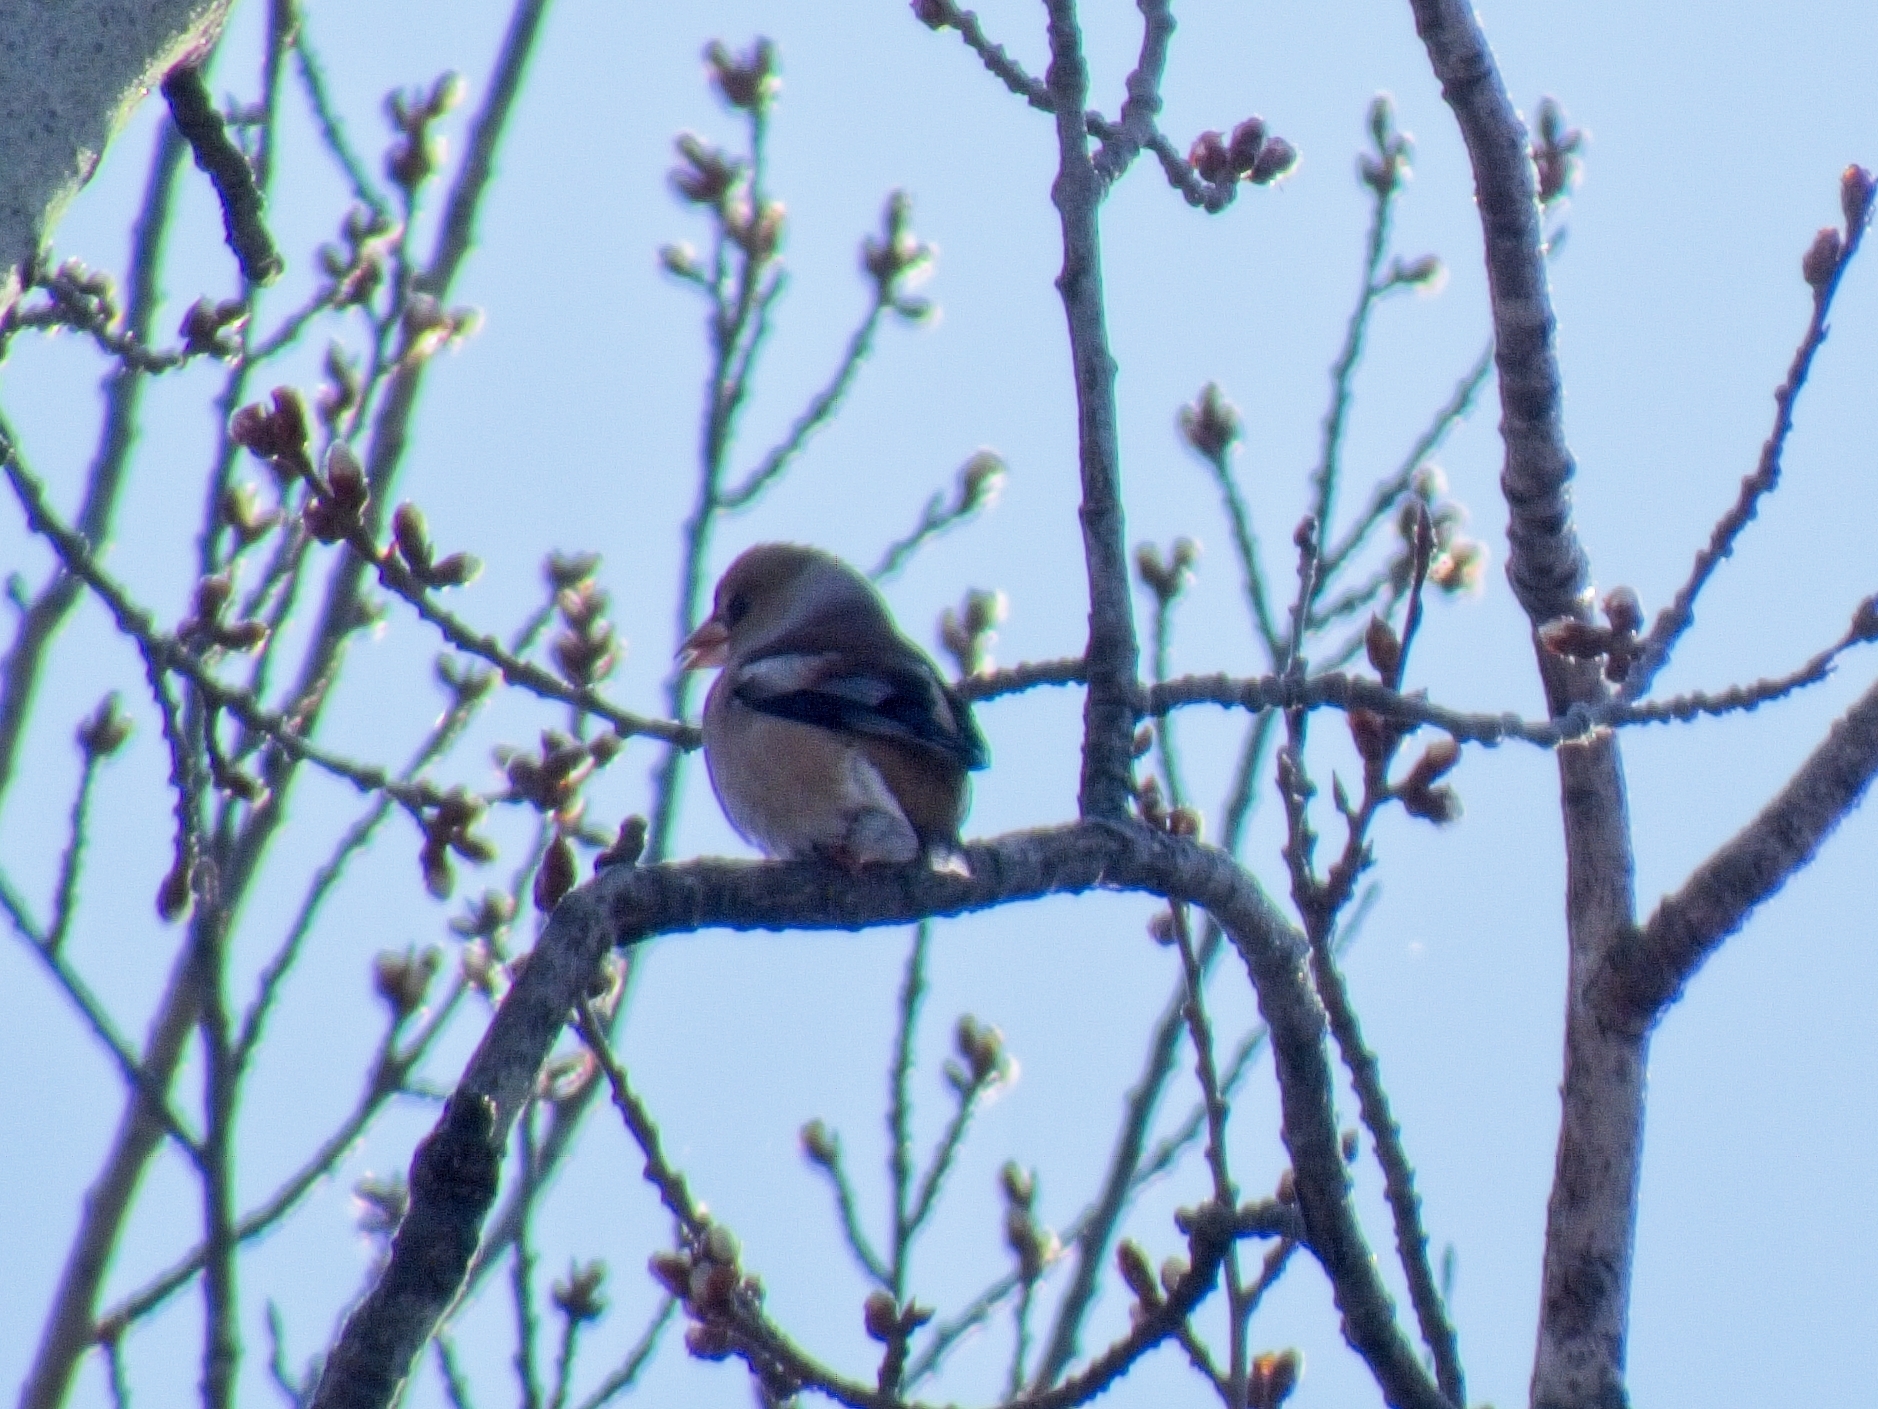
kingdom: Animalia
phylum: Chordata
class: Aves
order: Passeriformes
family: Fringillidae
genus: Coccothraustes
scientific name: Coccothraustes coccothraustes
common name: Hawfinch
